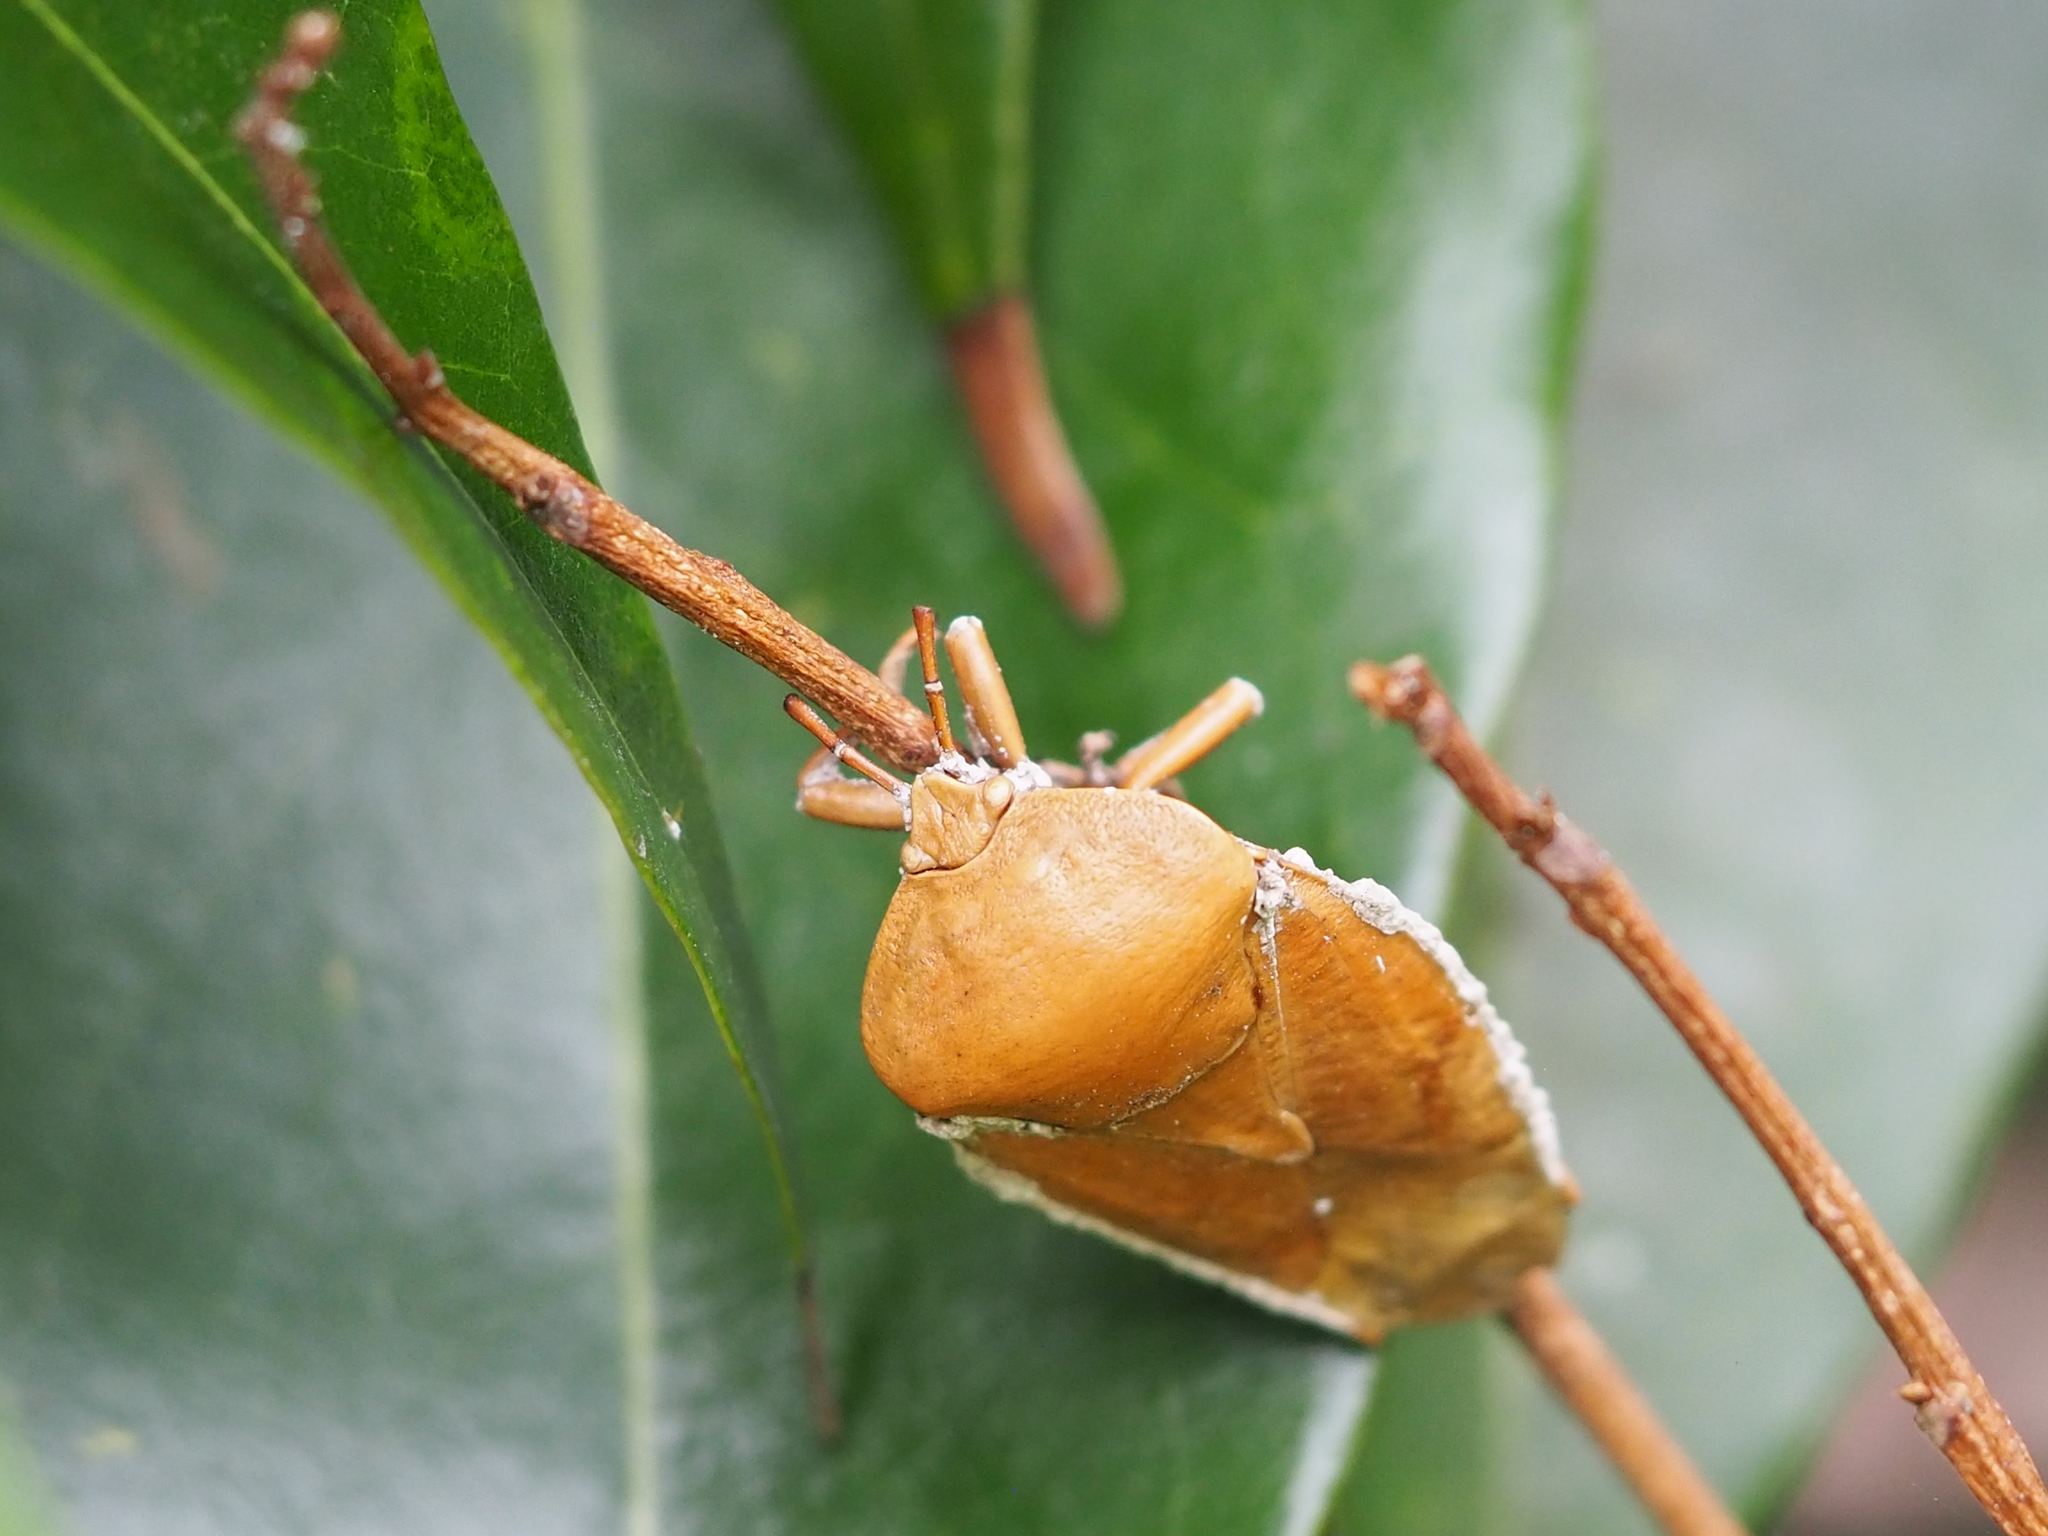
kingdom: Animalia
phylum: Arthropoda
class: Insecta
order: Hemiptera
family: Tessaratomidae
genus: Tessaratoma
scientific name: Tessaratoma papillosa
